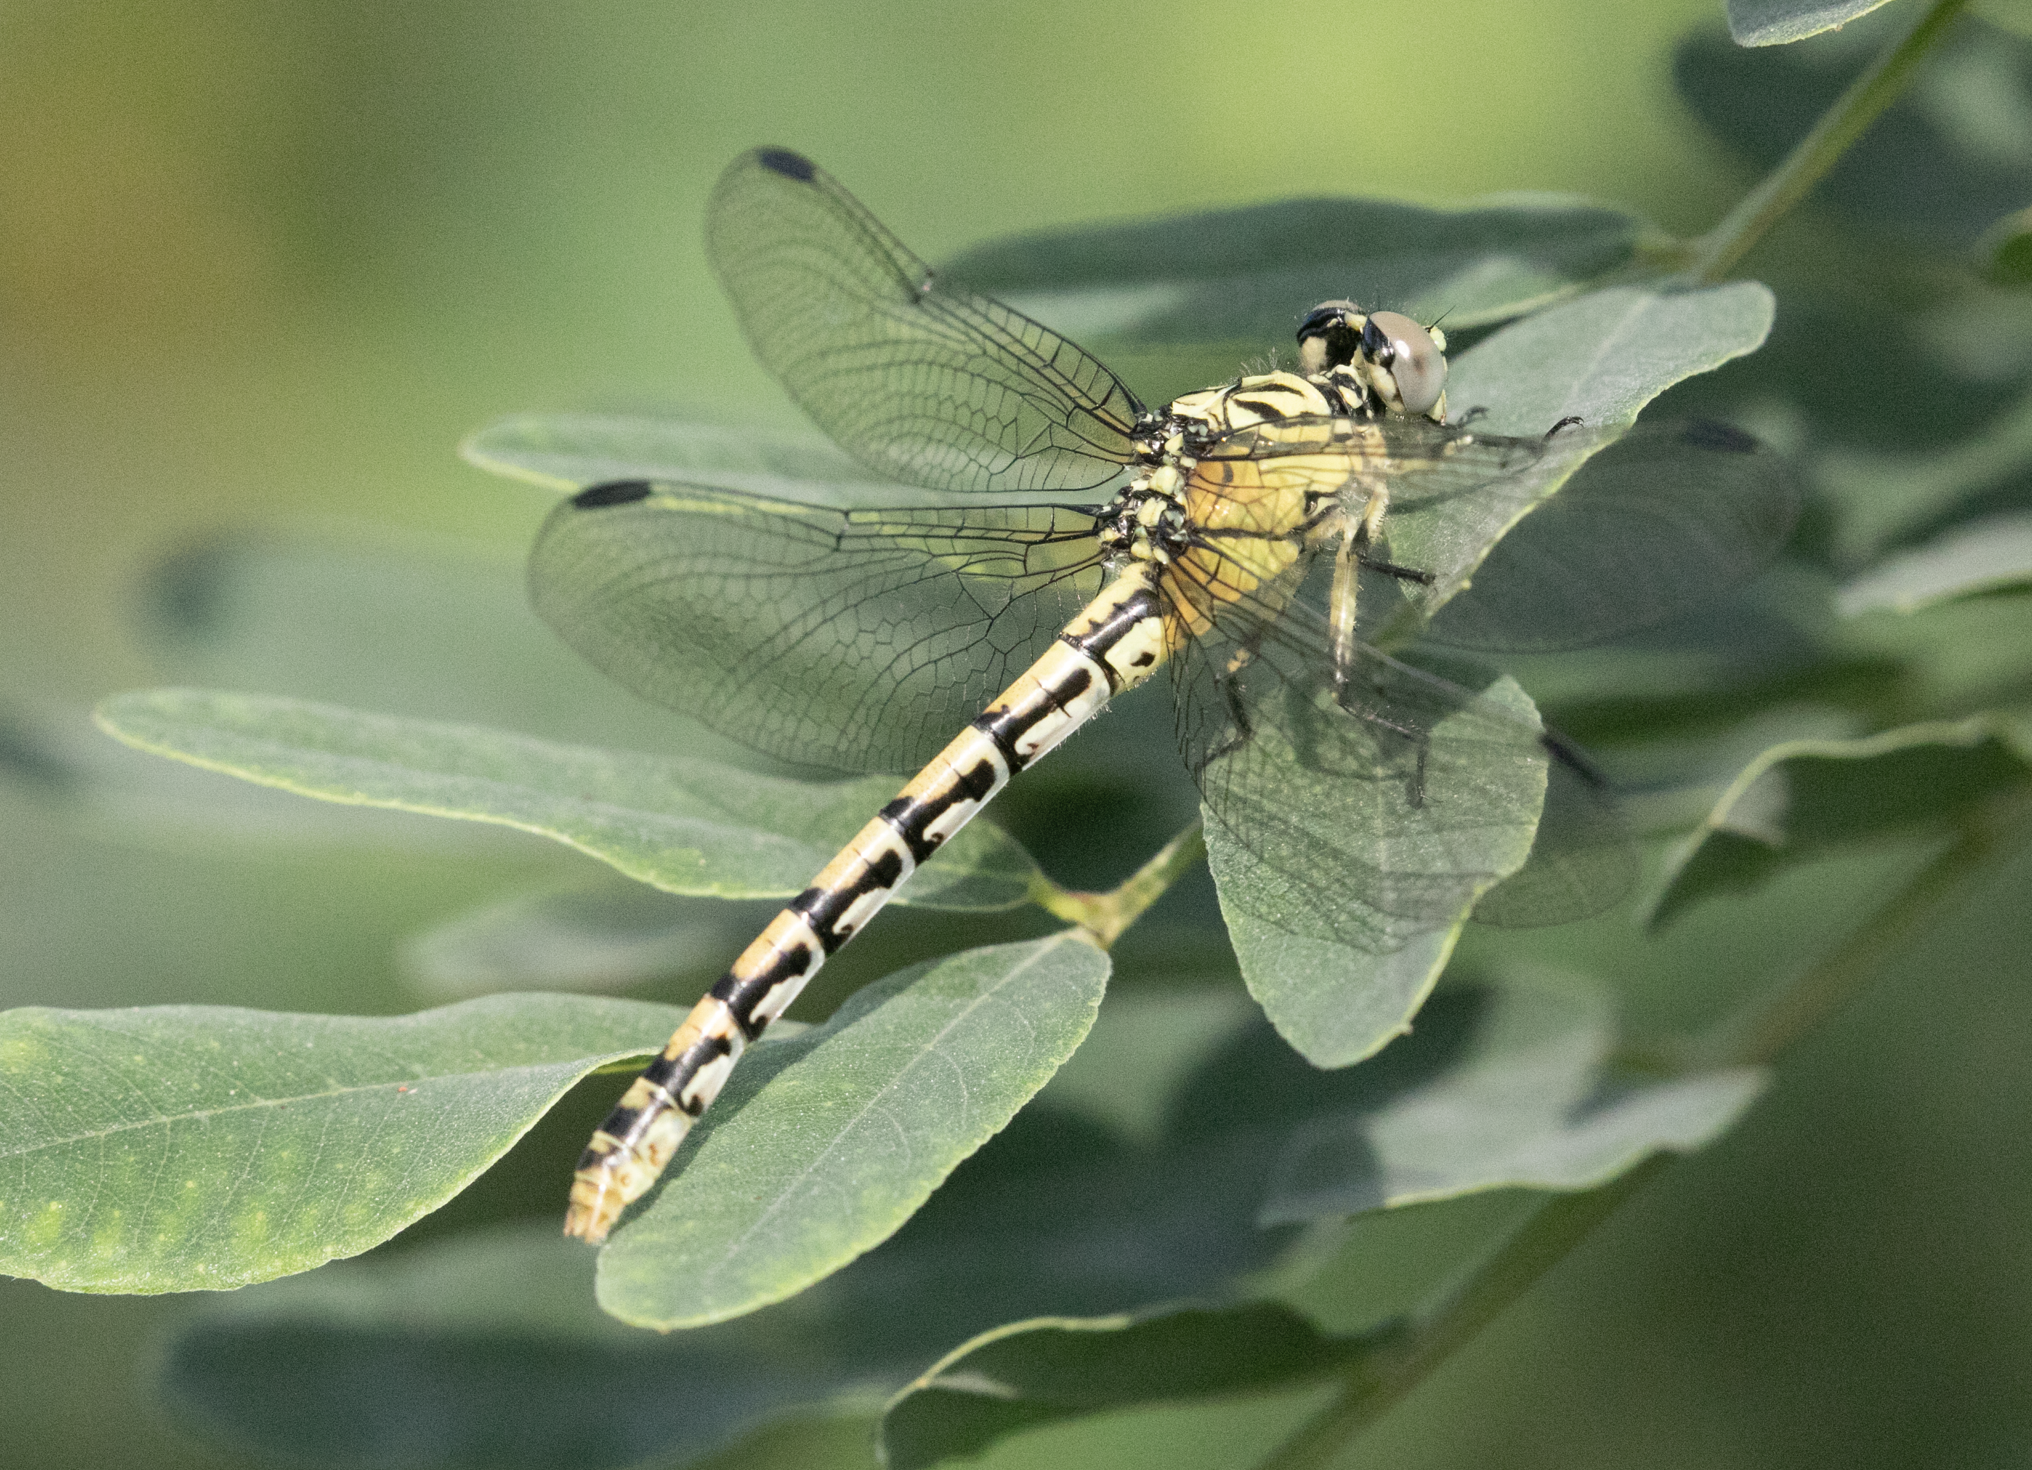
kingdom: Animalia
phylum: Arthropoda
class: Insecta
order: Odonata
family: Gomphidae
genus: Onychogomphus
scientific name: Onychogomphus forcipatus
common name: Small pincertail
